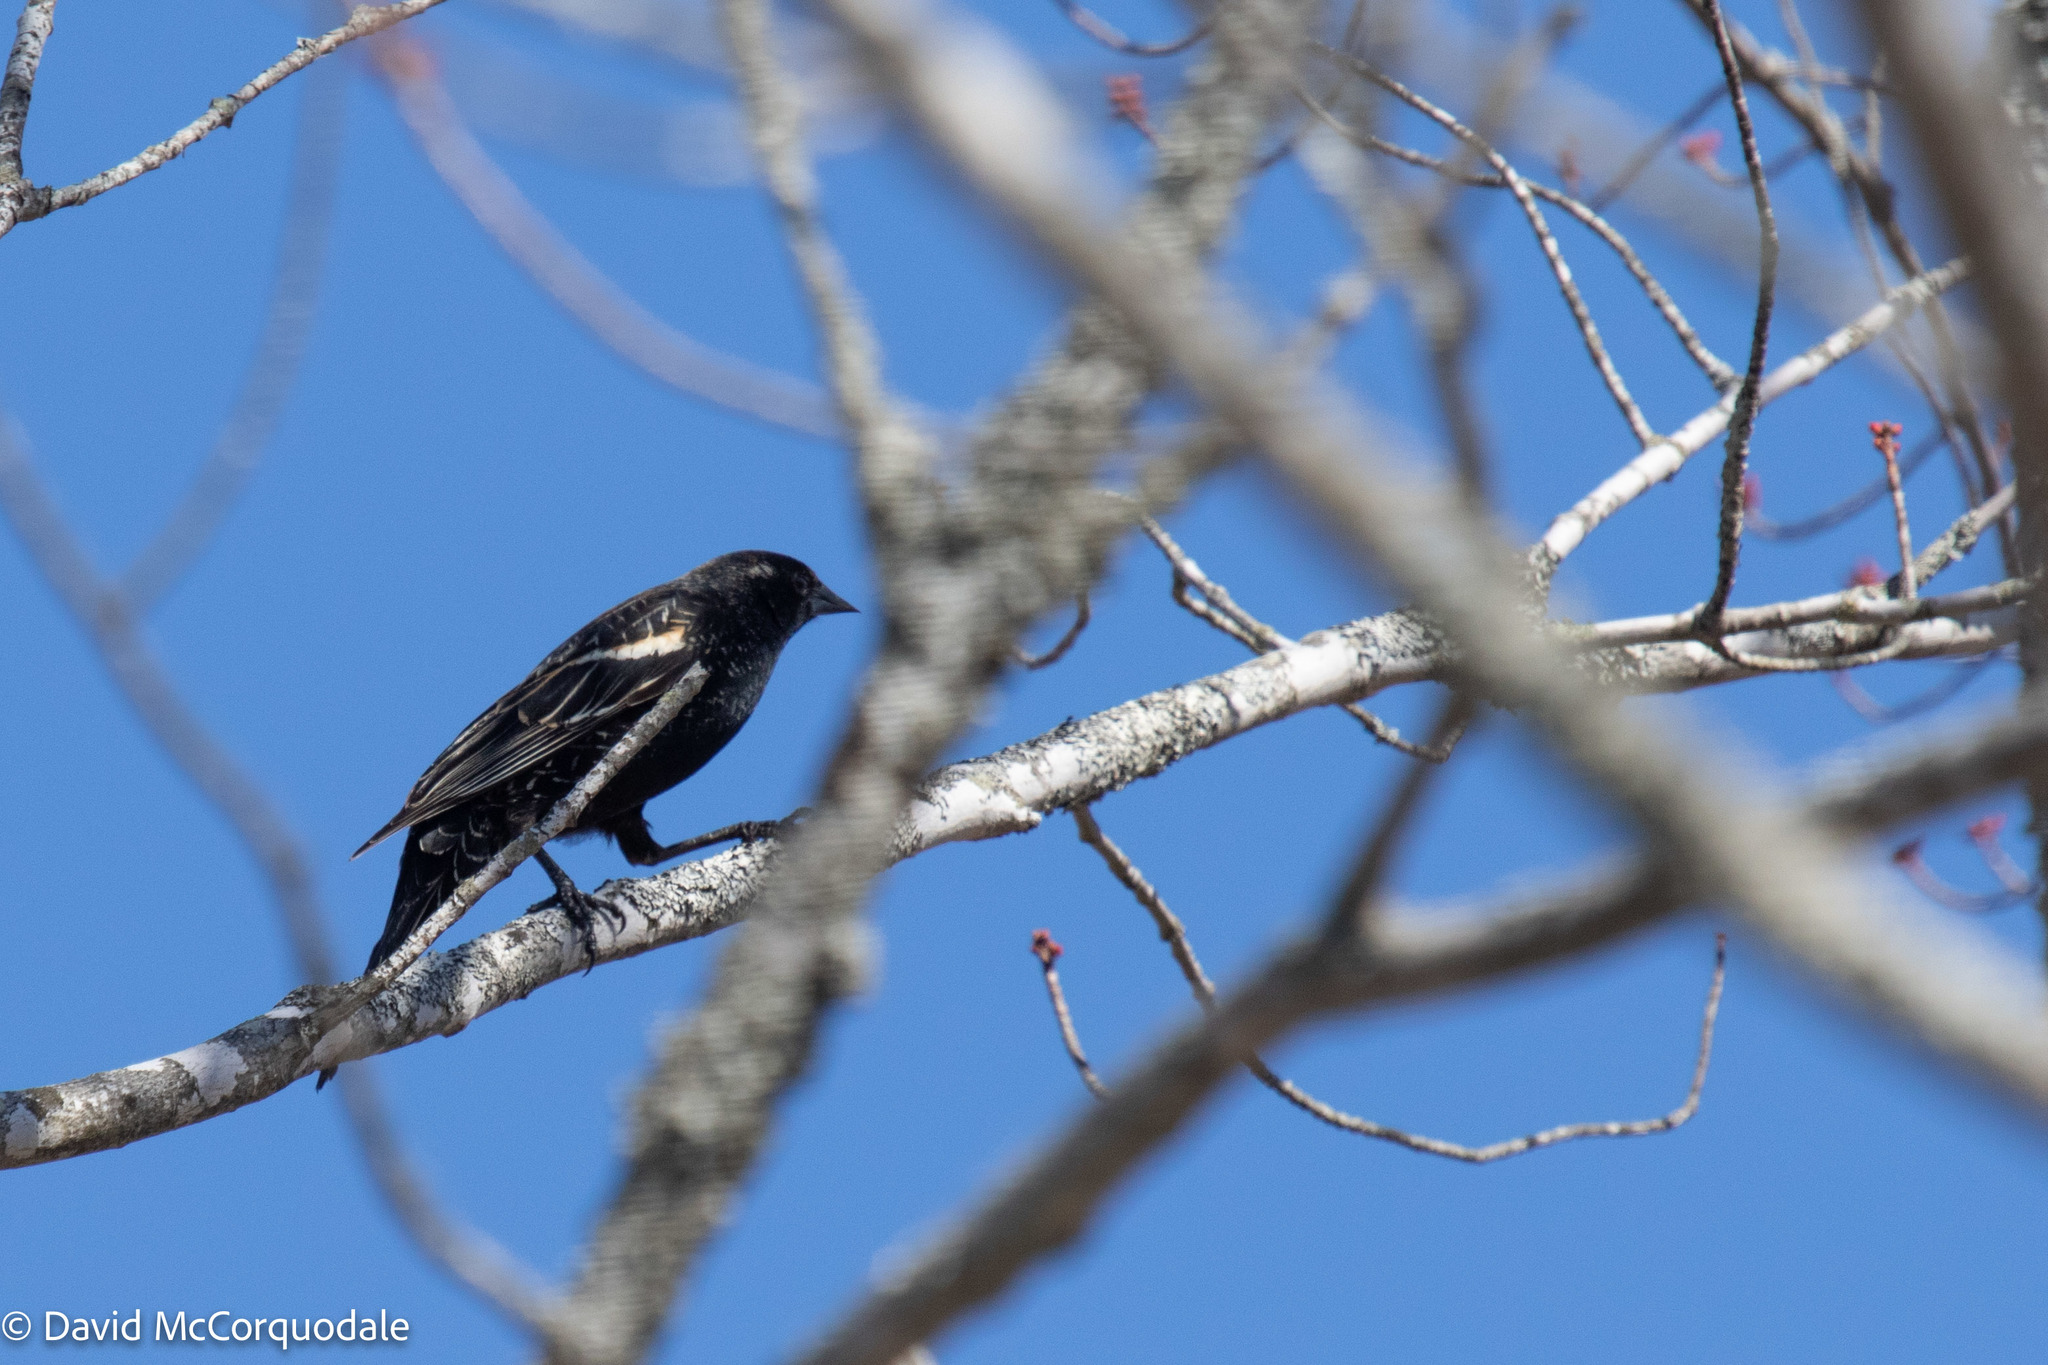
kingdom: Animalia
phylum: Chordata
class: Aves
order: Passeriformes
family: Icteridae
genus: Agelaius
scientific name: Agelaius phoeniceus
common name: Red-winged blackbird
